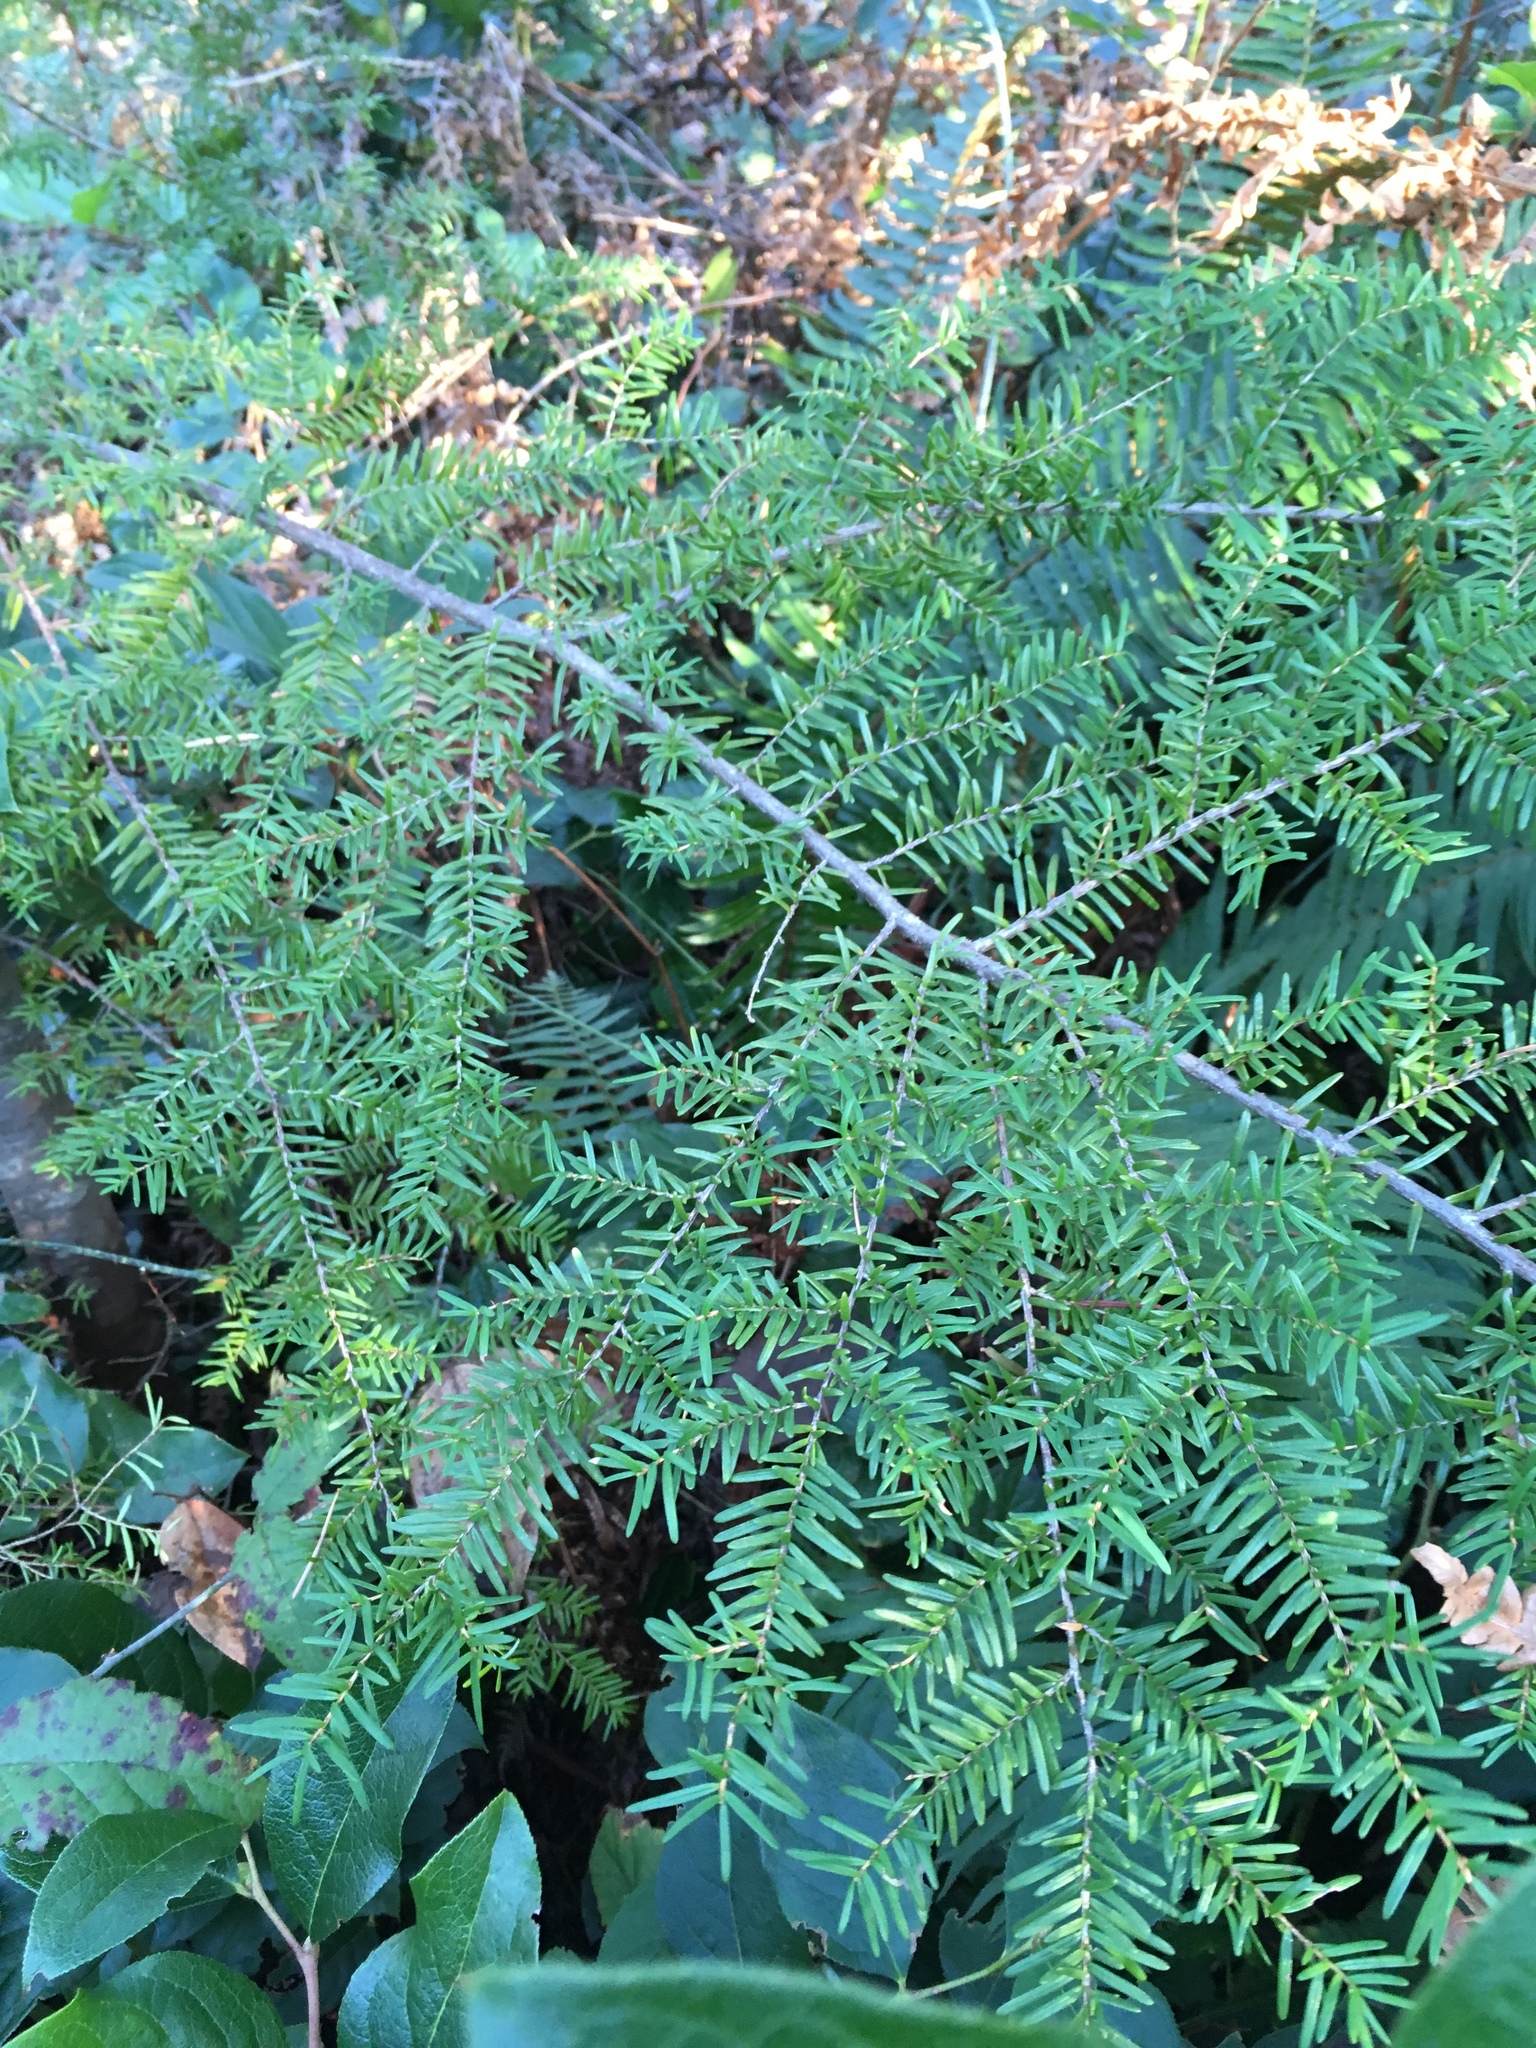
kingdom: Plantae
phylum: Tracheophyta
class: Pinopsida
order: Pinales
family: Pinaceae
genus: Tsuga
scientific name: Tsuga heterophylla
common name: Western hemlock
